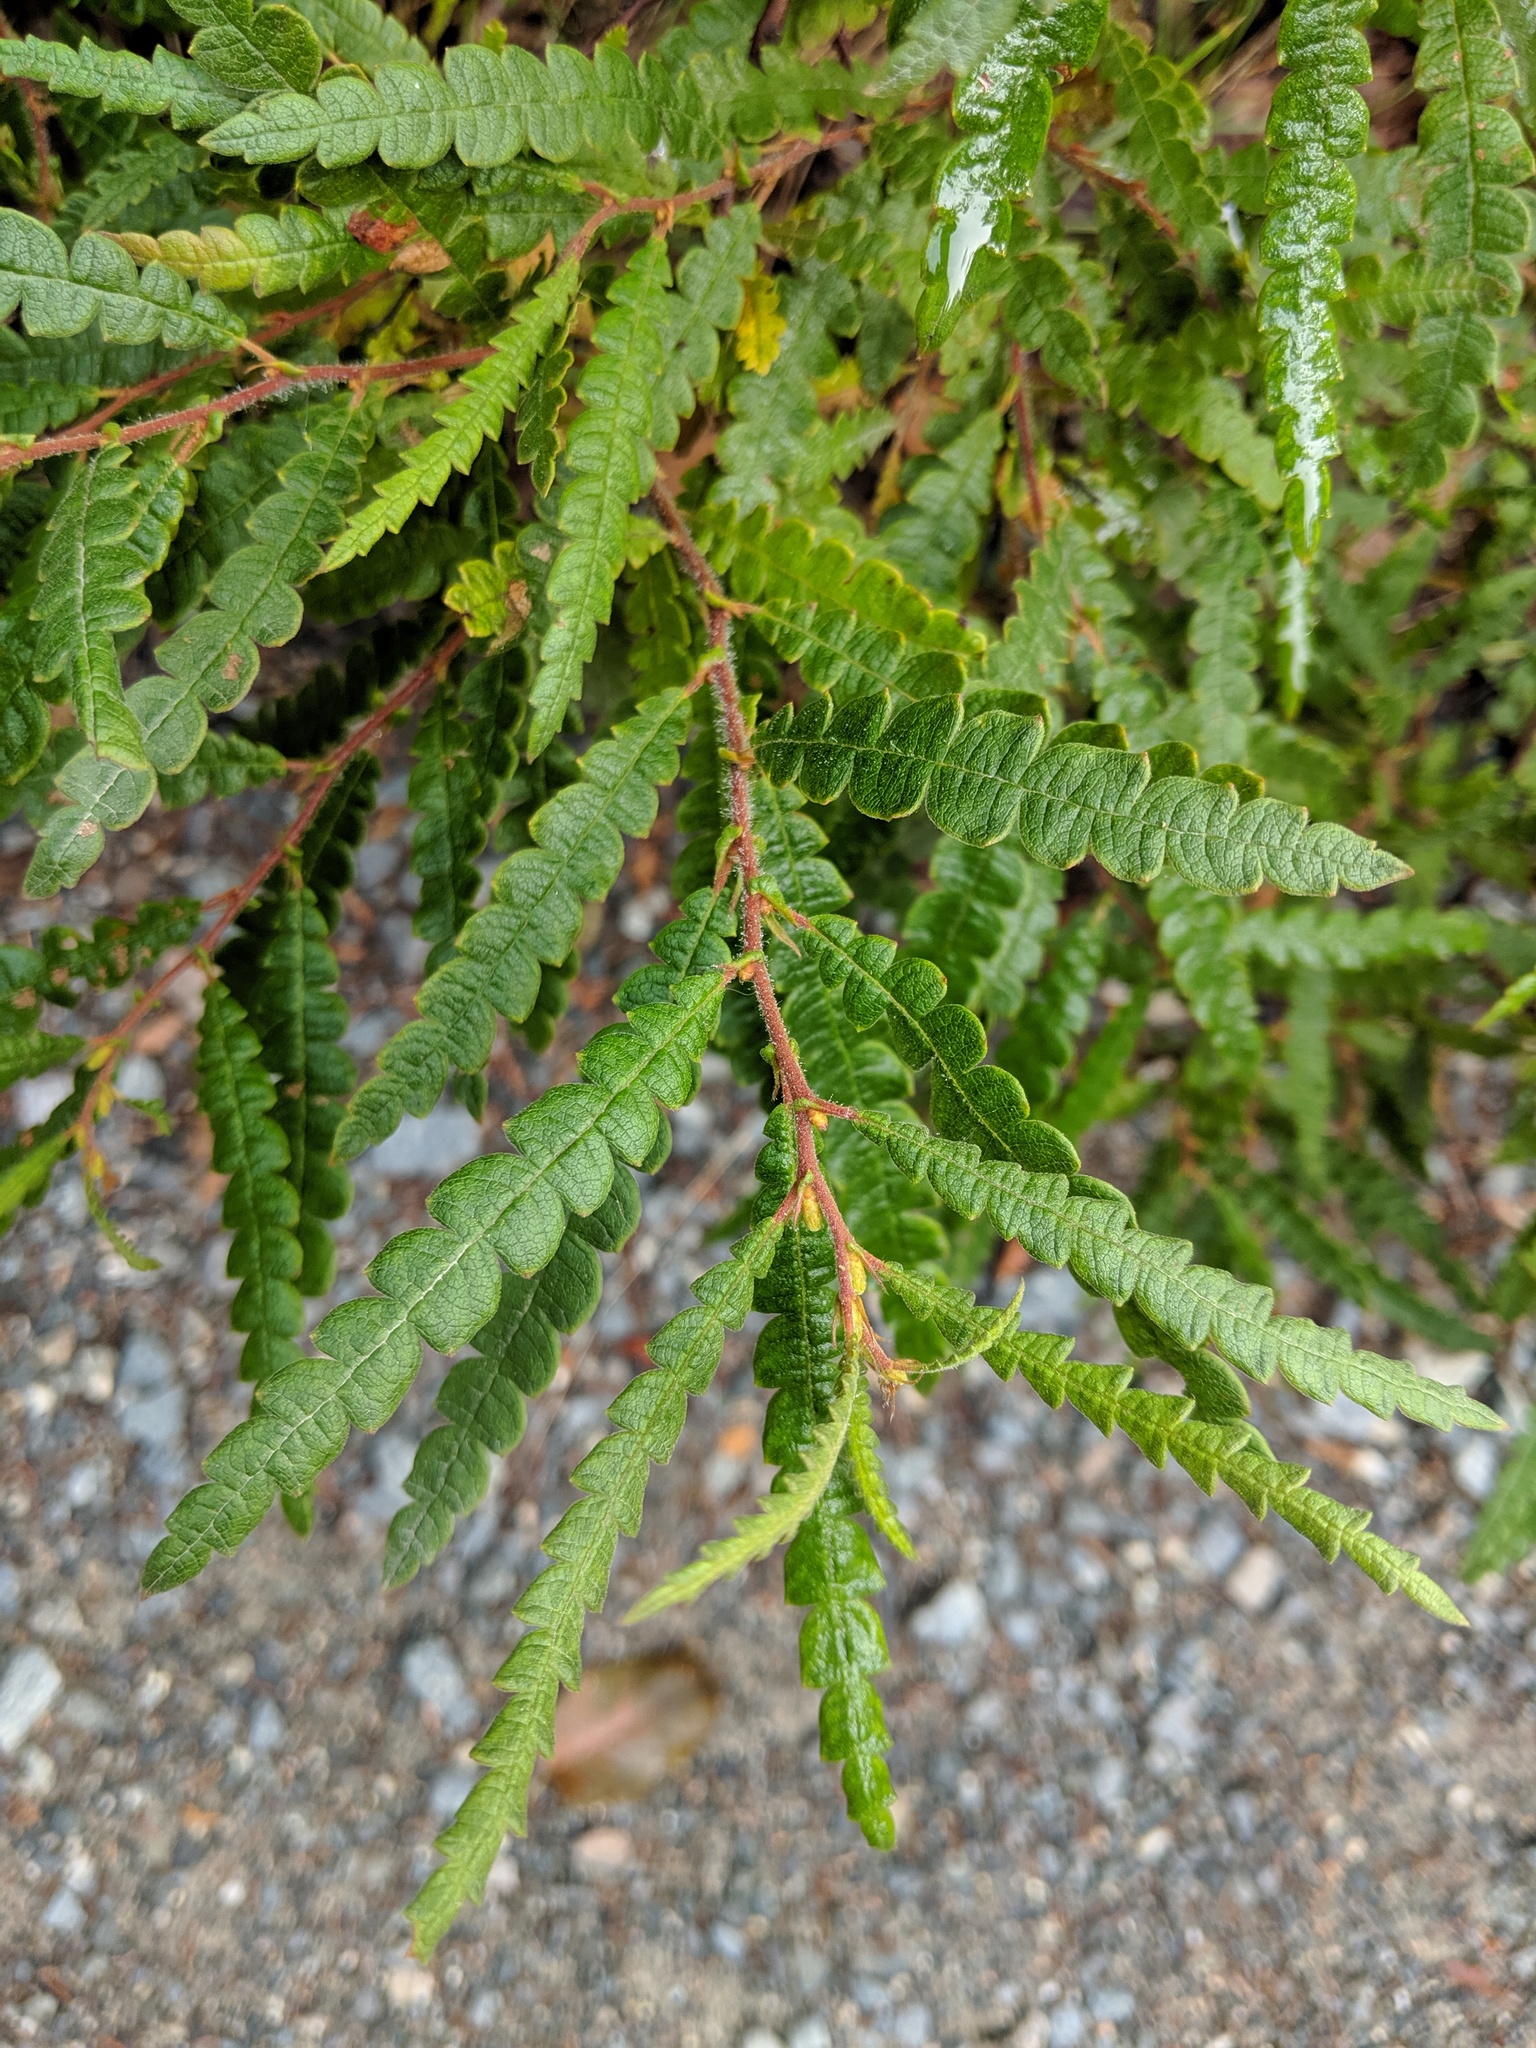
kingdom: Plantae
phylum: Tracheophyta
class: Magnoliopsida
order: Fagales
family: Myricaceae
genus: Comptonia
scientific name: Comptonia peregrina
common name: Sweet-fern
